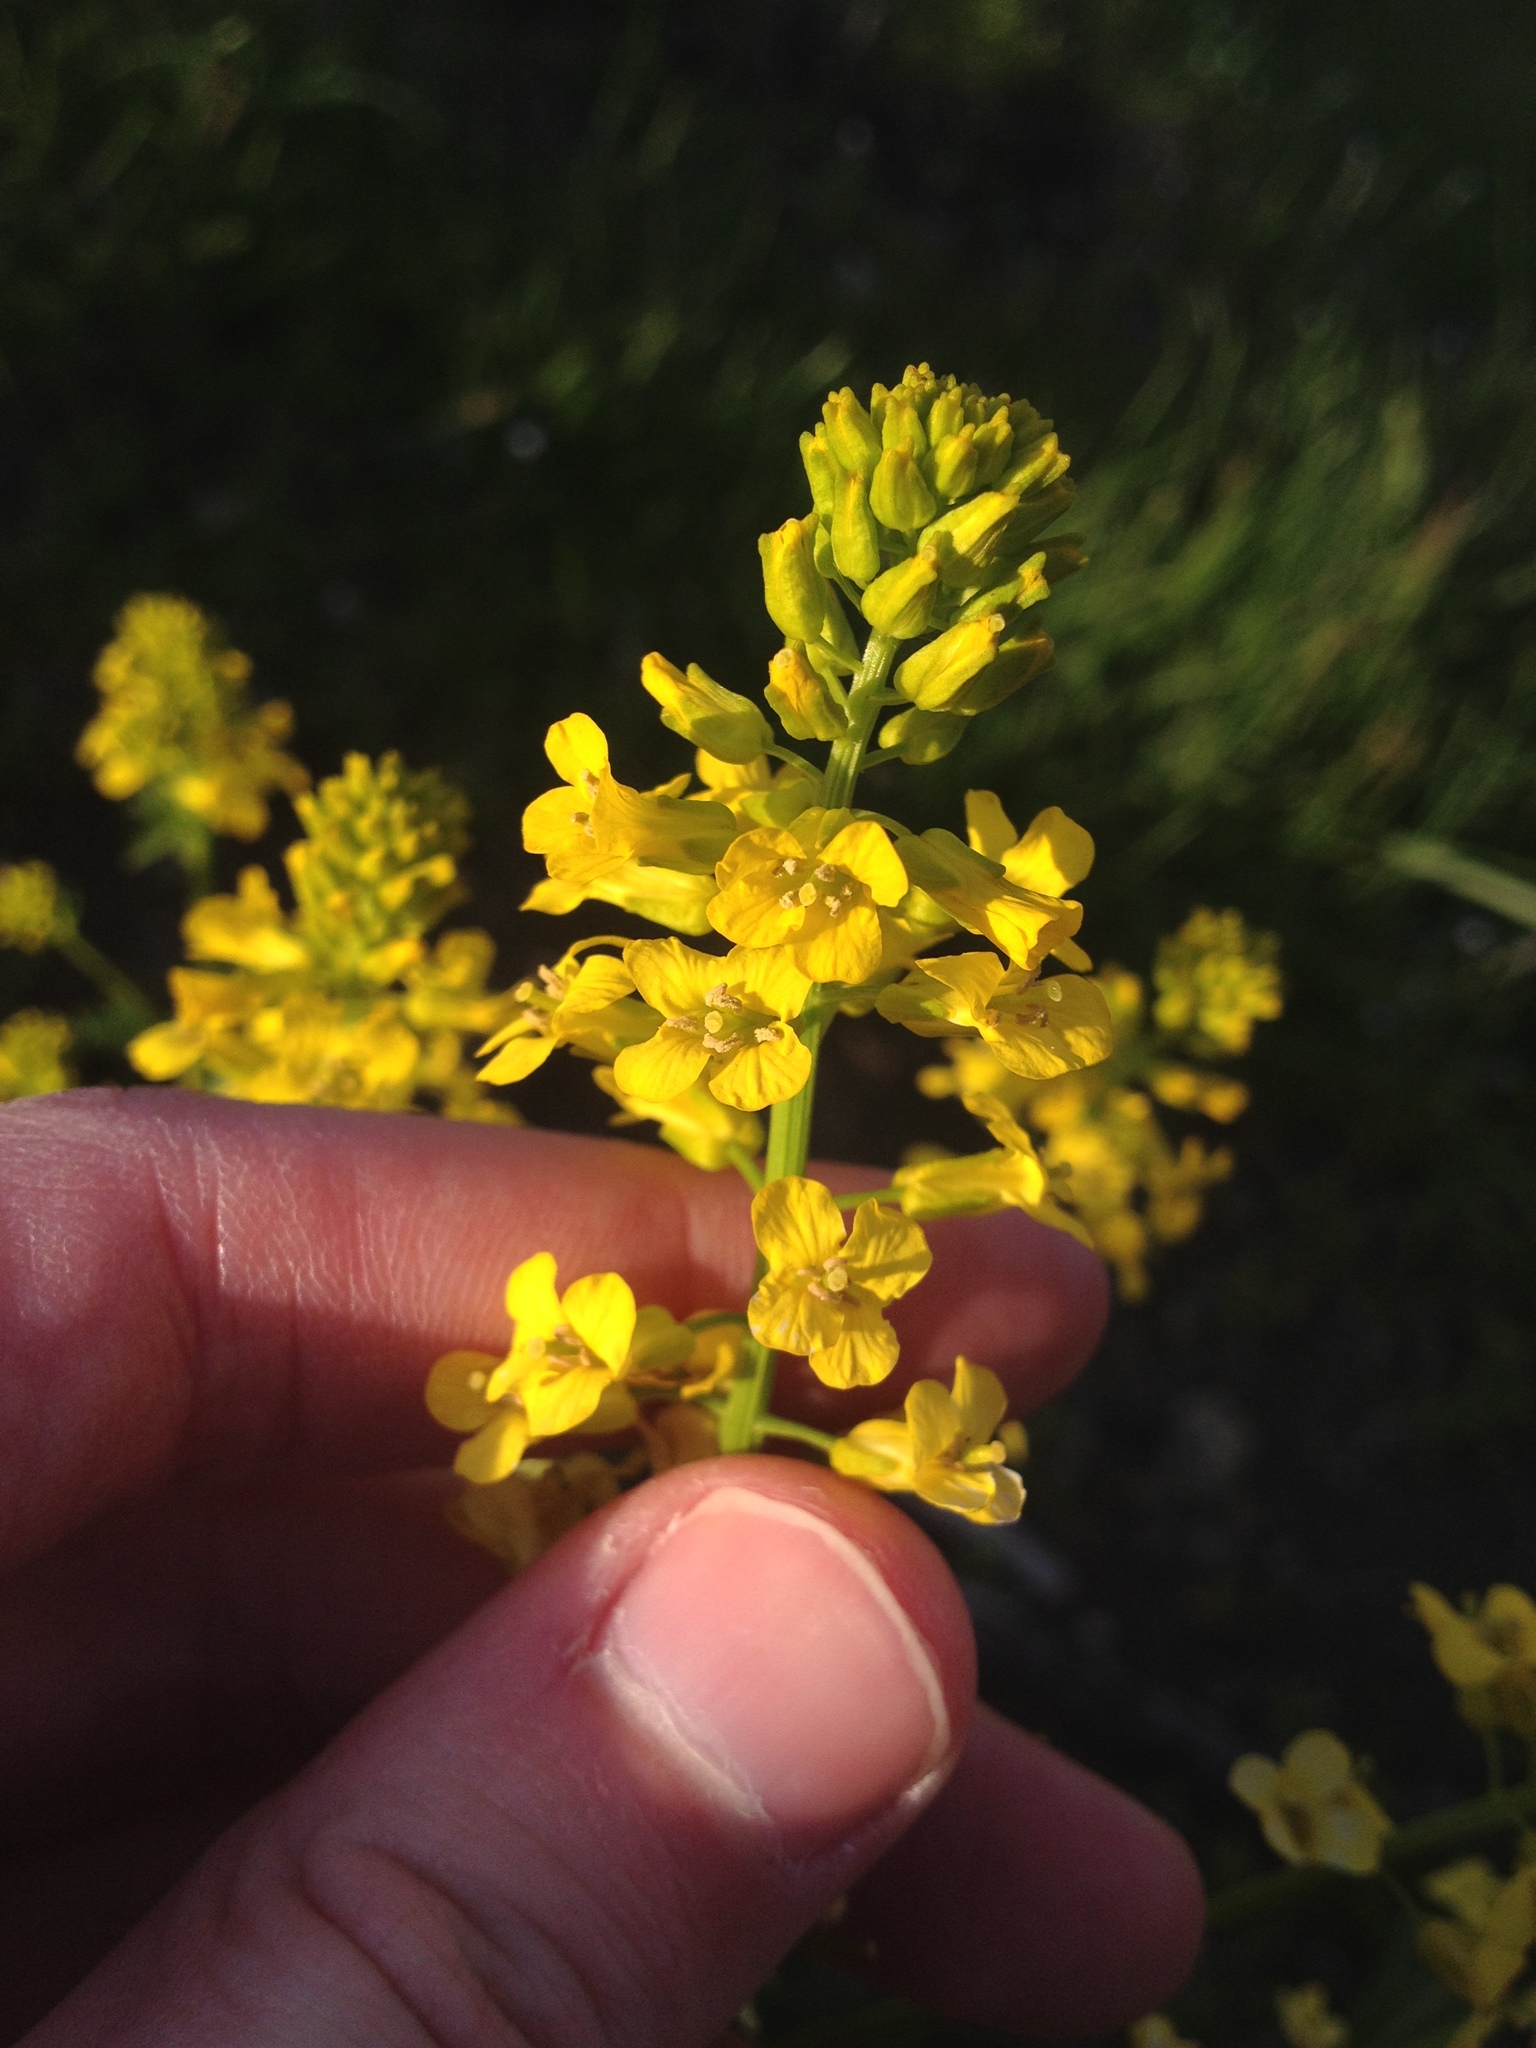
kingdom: Plantae
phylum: Tracheophyta
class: Magnoliopsida
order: Brassicales
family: Brassicaceae
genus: Barbarea
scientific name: Barbarea vulgaris
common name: Cressy-greens
